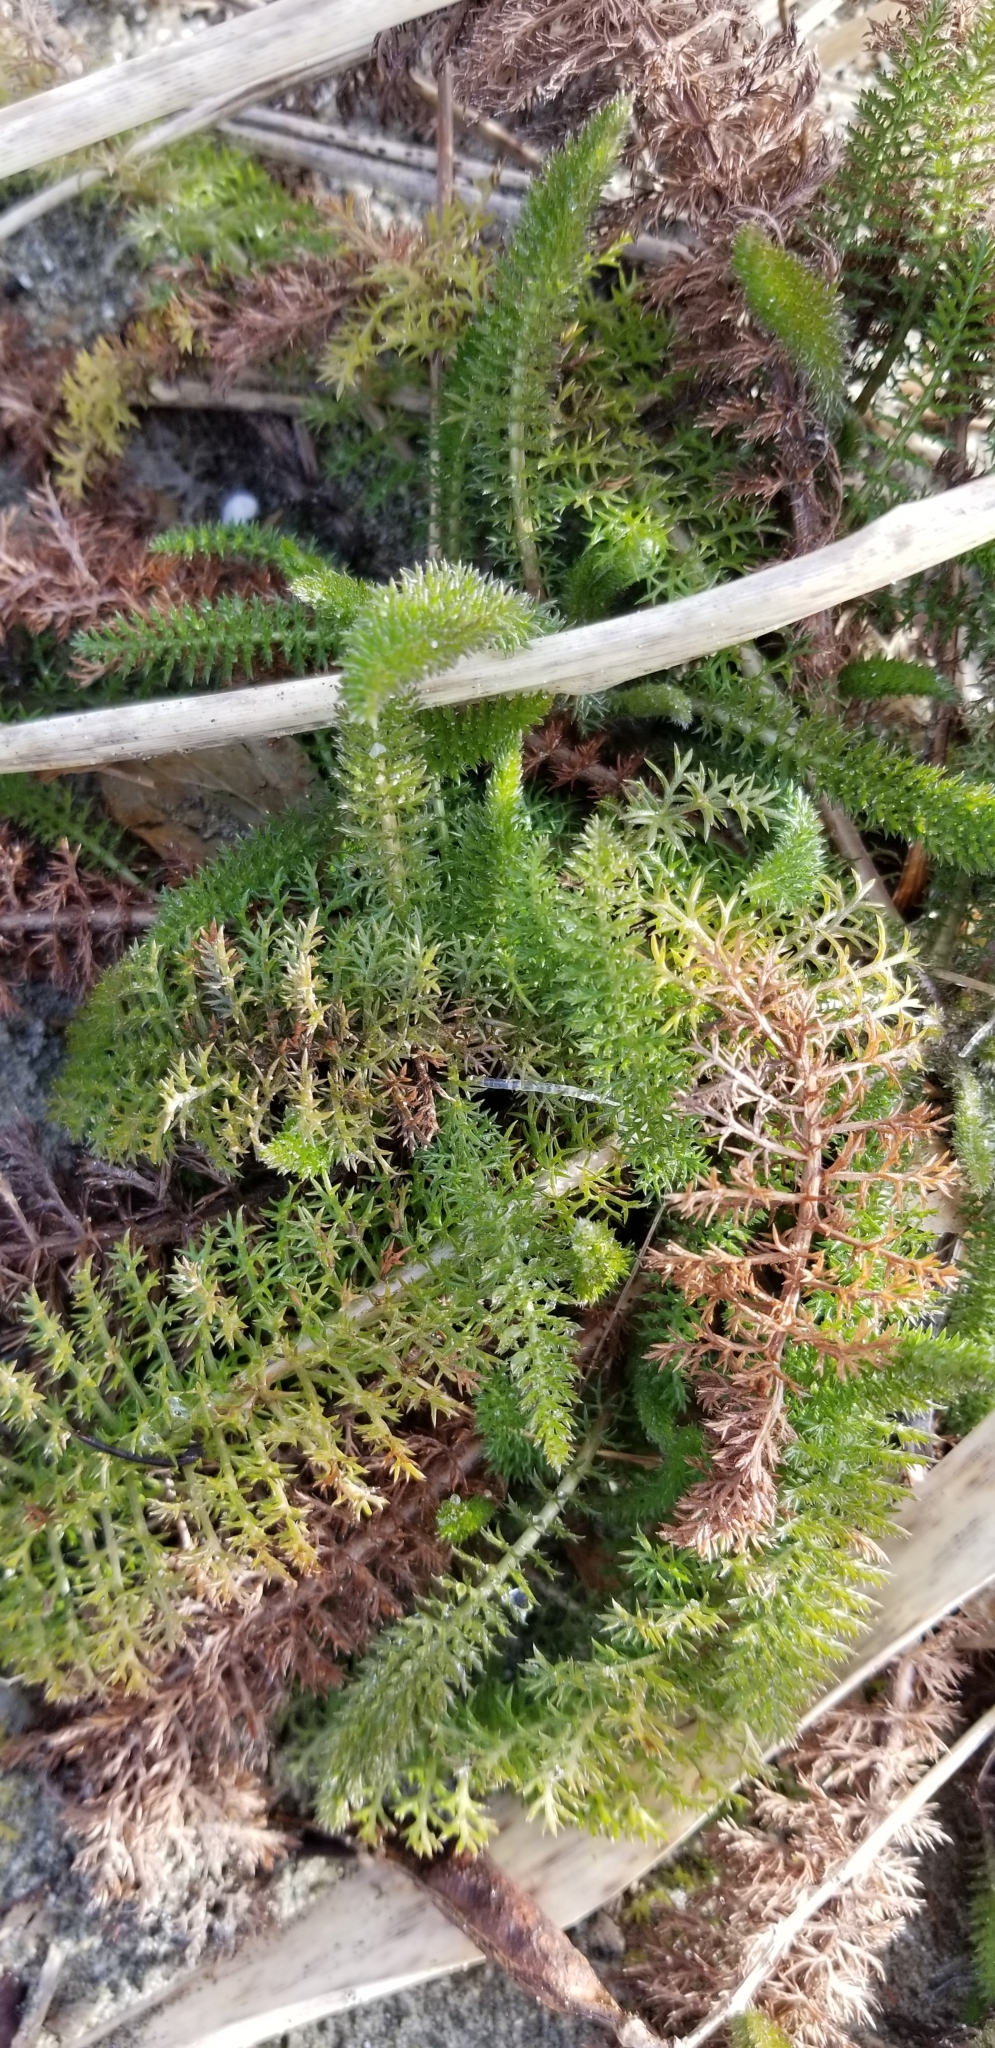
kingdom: Plantae
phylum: Tracheophyta
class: Magnoliopsida
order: Asterales
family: Asteraceae
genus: Achillea
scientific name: Achillea millefolium
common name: Yarrow
